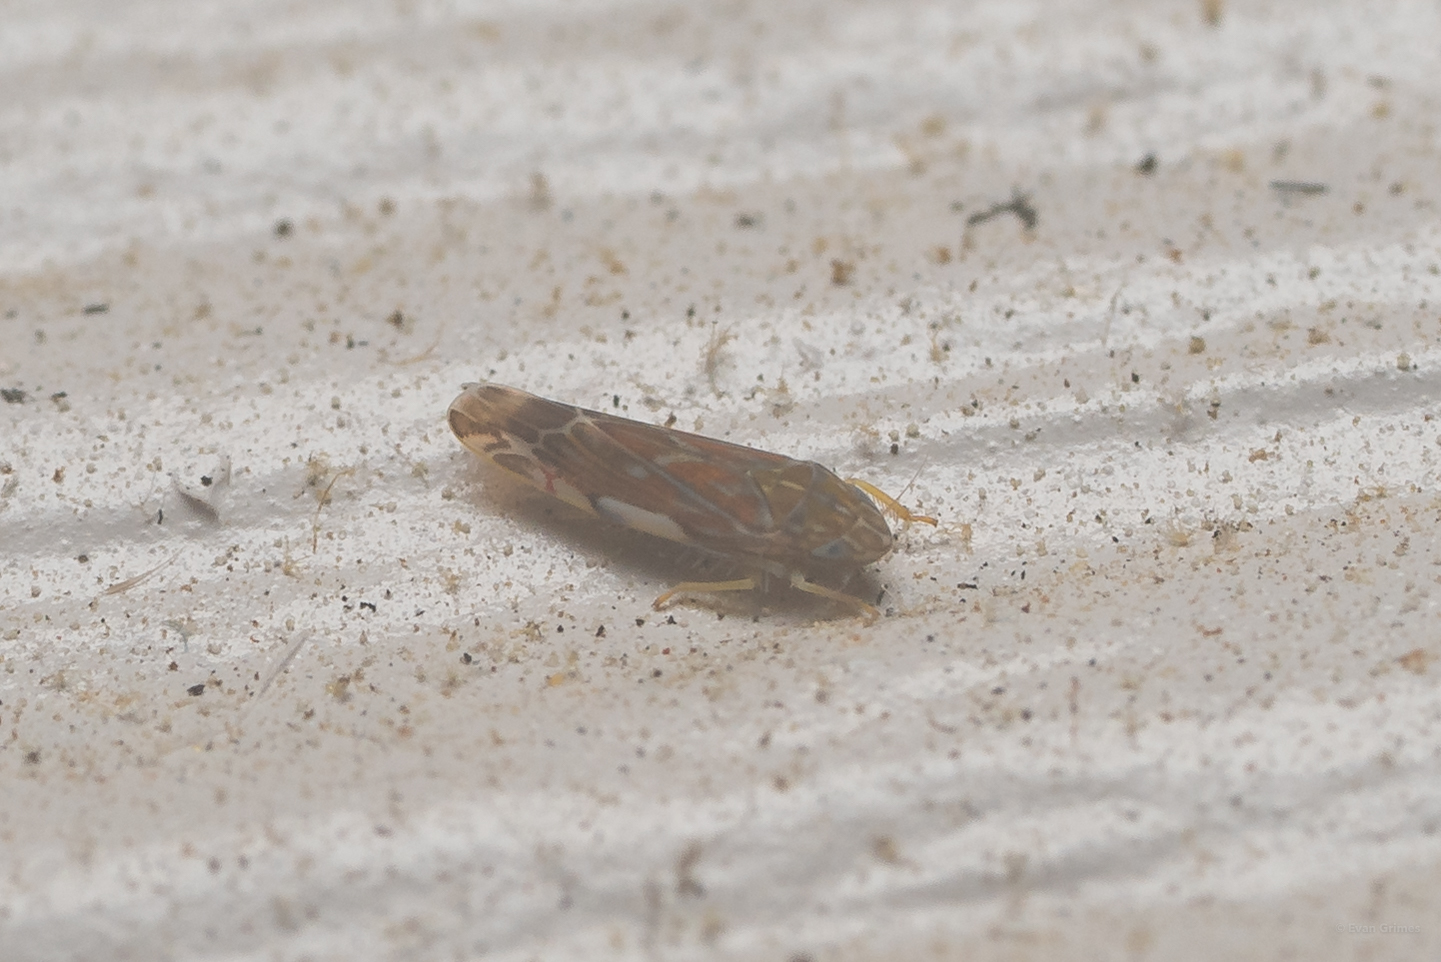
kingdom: Animalia
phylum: Arthropoda
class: Insecta
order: Hemiptera
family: Cicadellidae
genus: Erasmoneura
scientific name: Erasmoneura vulnerata
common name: The wounded leafhopper
